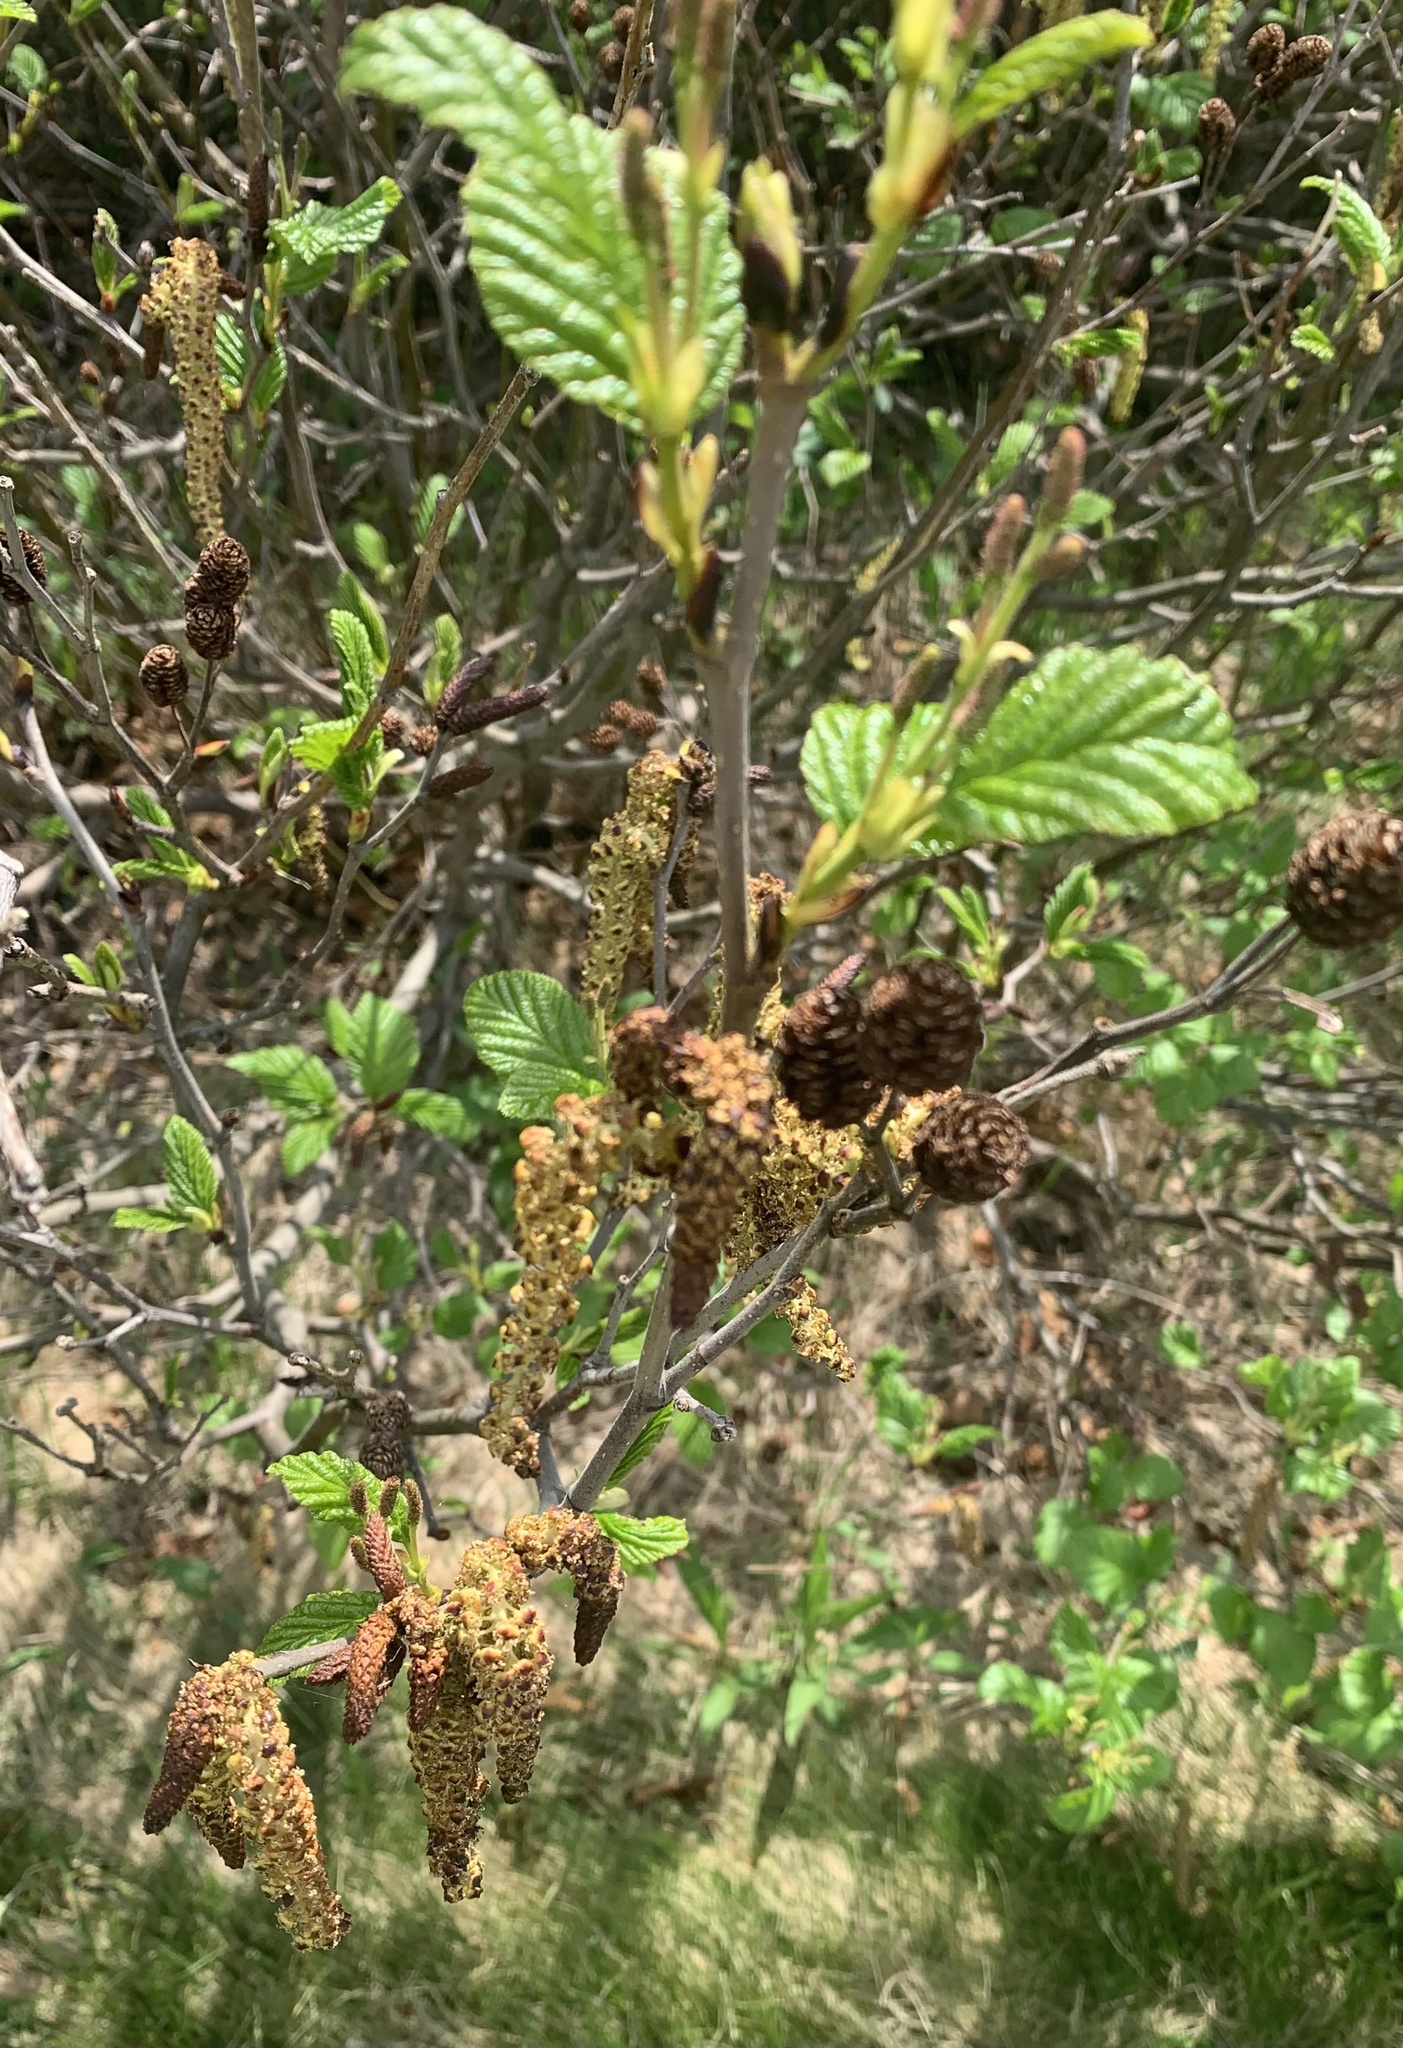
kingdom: Plantae
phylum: Tracheophyta
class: Magnoliopsida
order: Fagales
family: Betulaceae
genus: Alnus
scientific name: Alnus alnobetula
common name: Green alder
